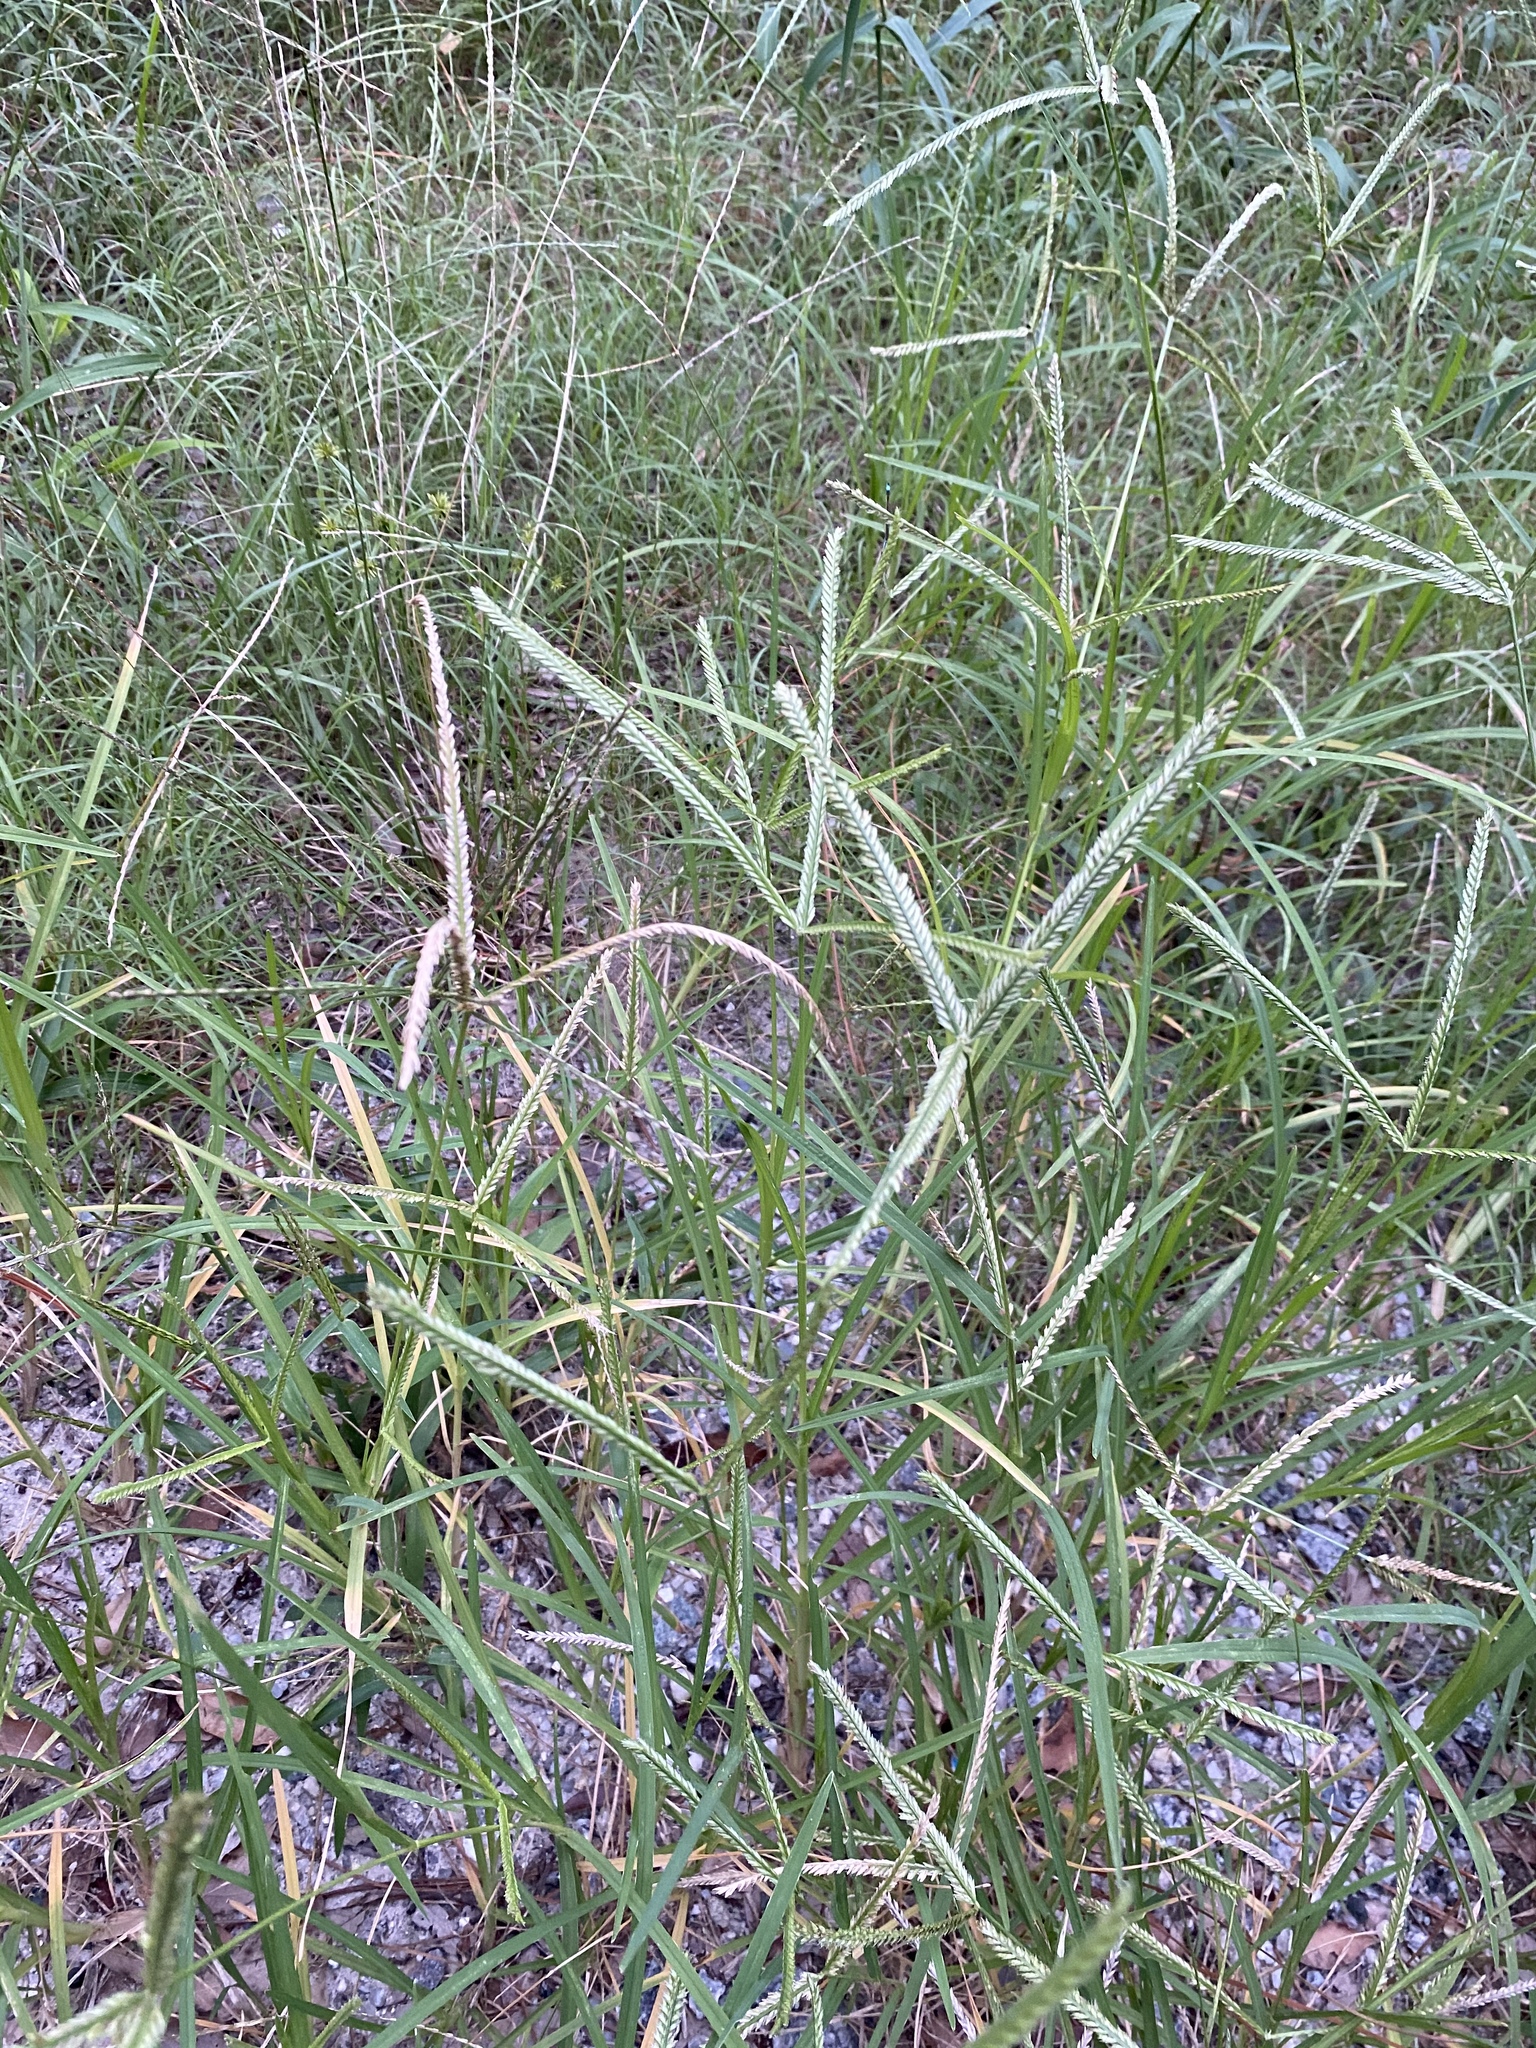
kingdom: Plantae
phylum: Tracheophyta
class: Liliopsida
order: Poales
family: Poaceae
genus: Eleusine
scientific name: Eleusine indica
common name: Yard-grass
